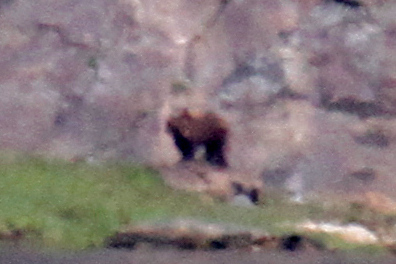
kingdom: Animalia
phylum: Chordata
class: Mammalia
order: Carnivora
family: Ursidae
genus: Ursus
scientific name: Ursus arctos
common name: Brown bear
